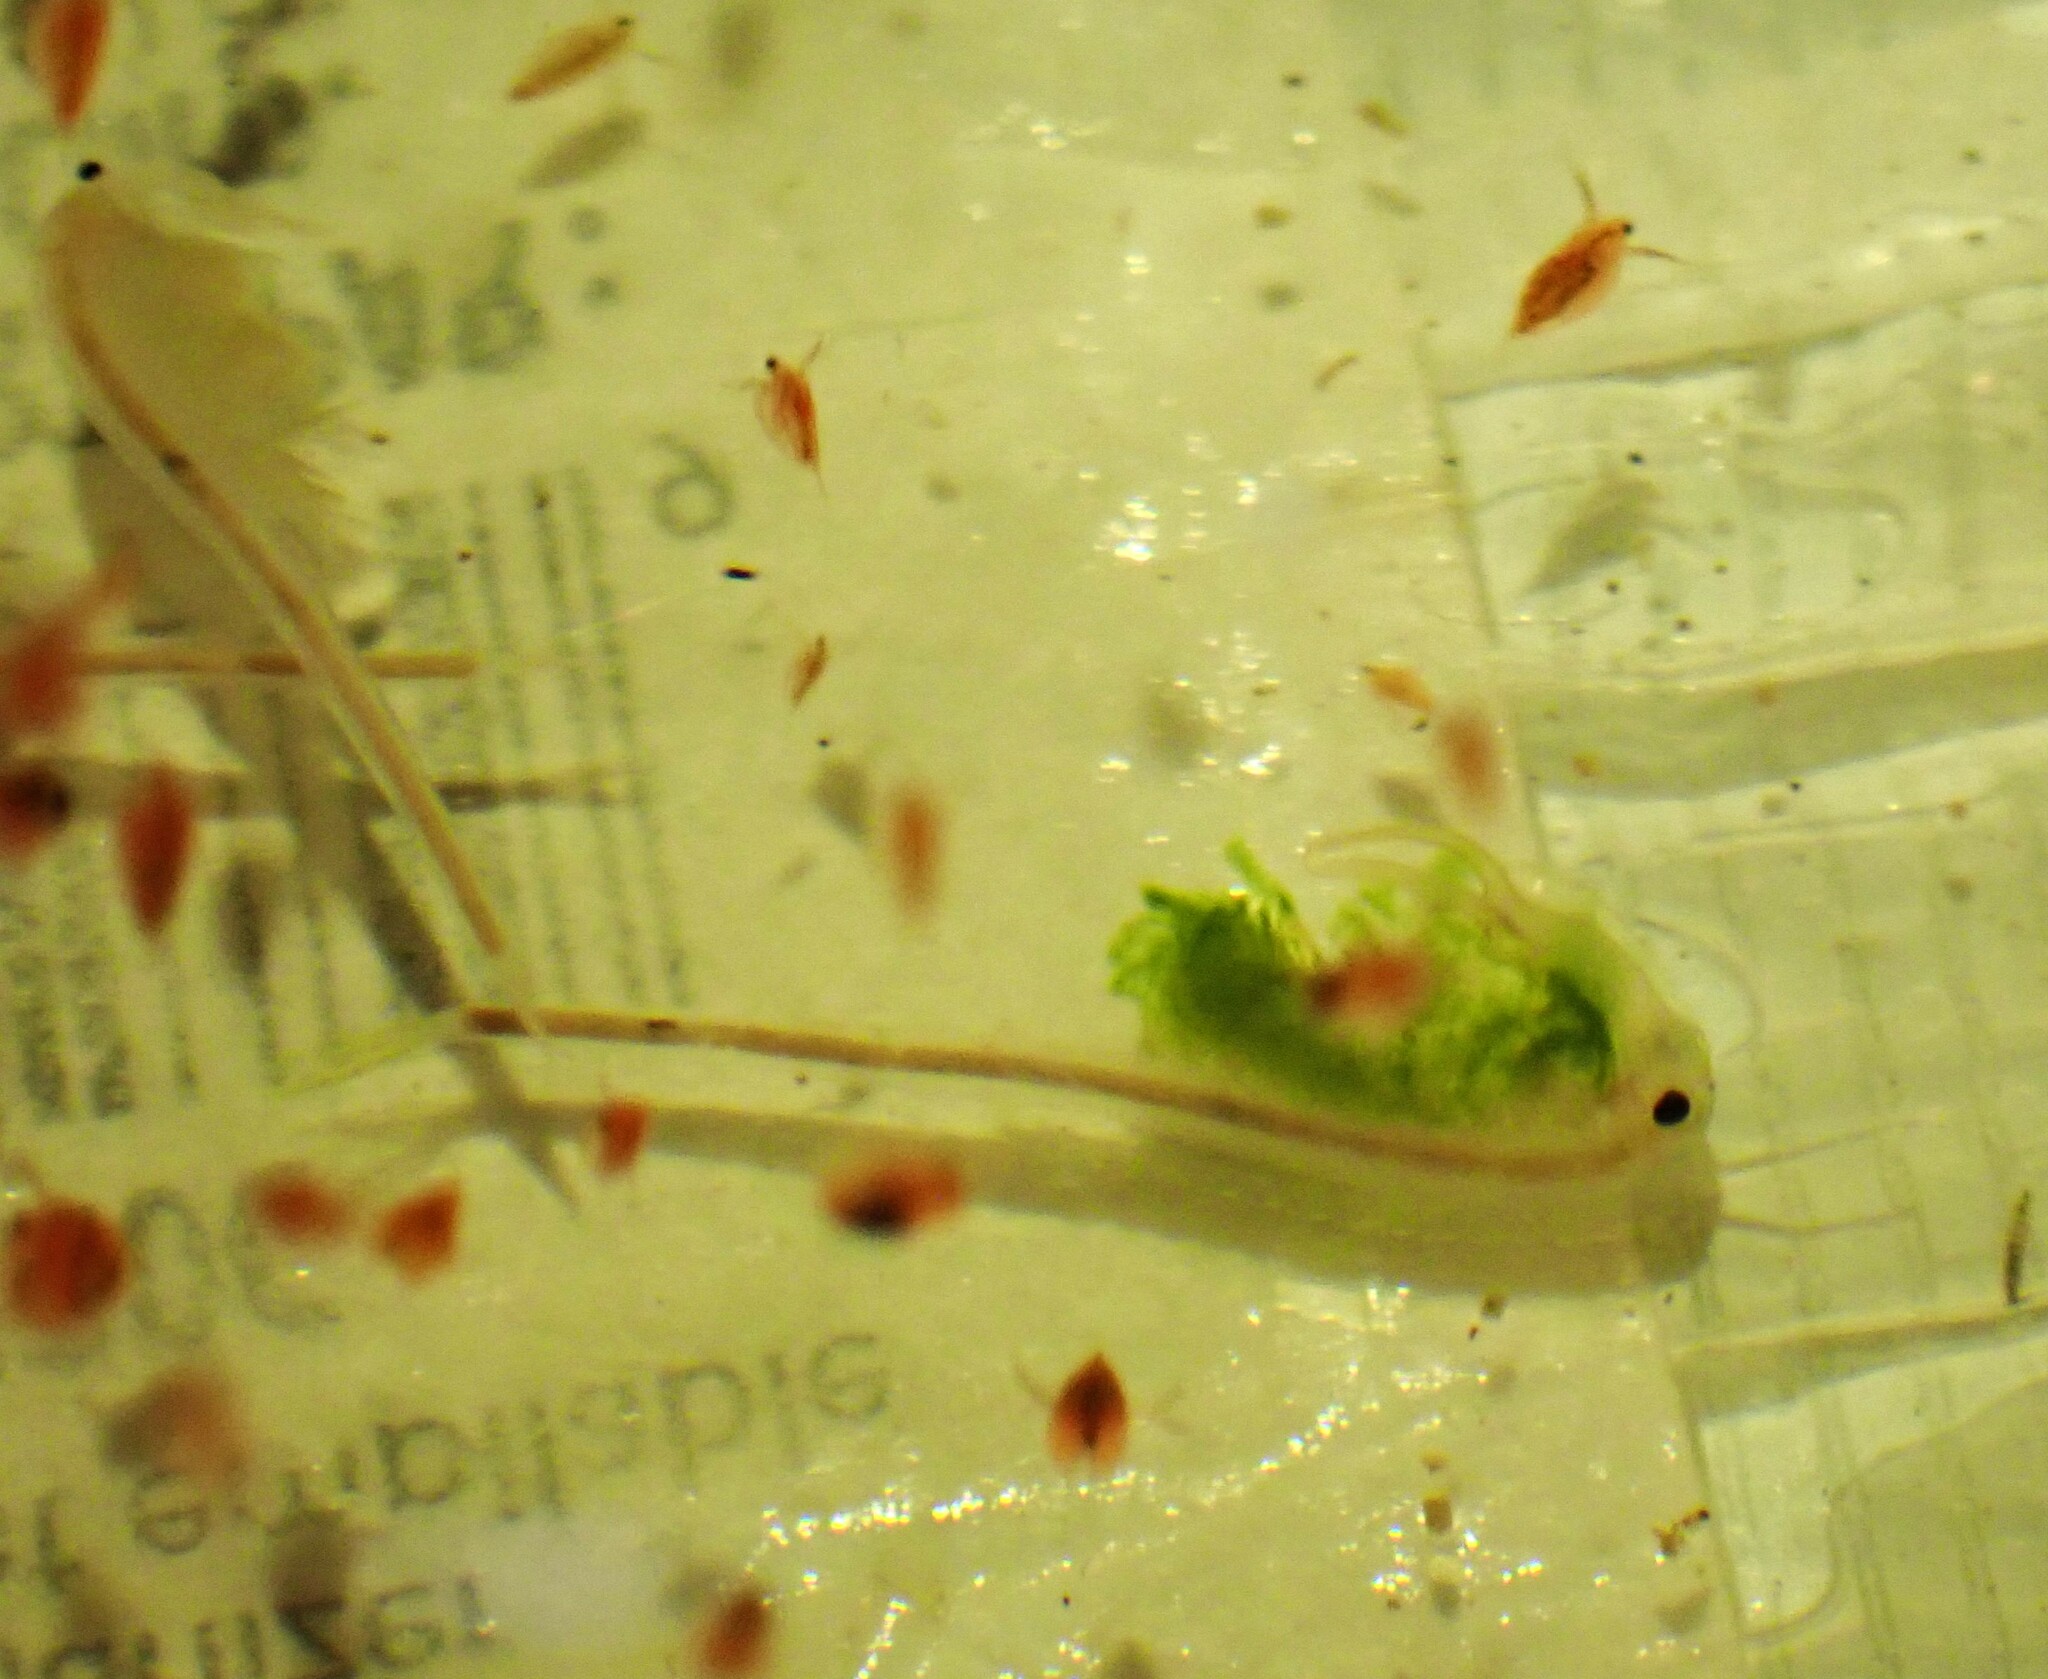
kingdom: Animalia
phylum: Arthropoda
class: Branchiopoda
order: Anostraca
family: Branchinectidae
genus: Branchinecta
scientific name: Branchinecta mackini
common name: Alkali fairy shrimp
